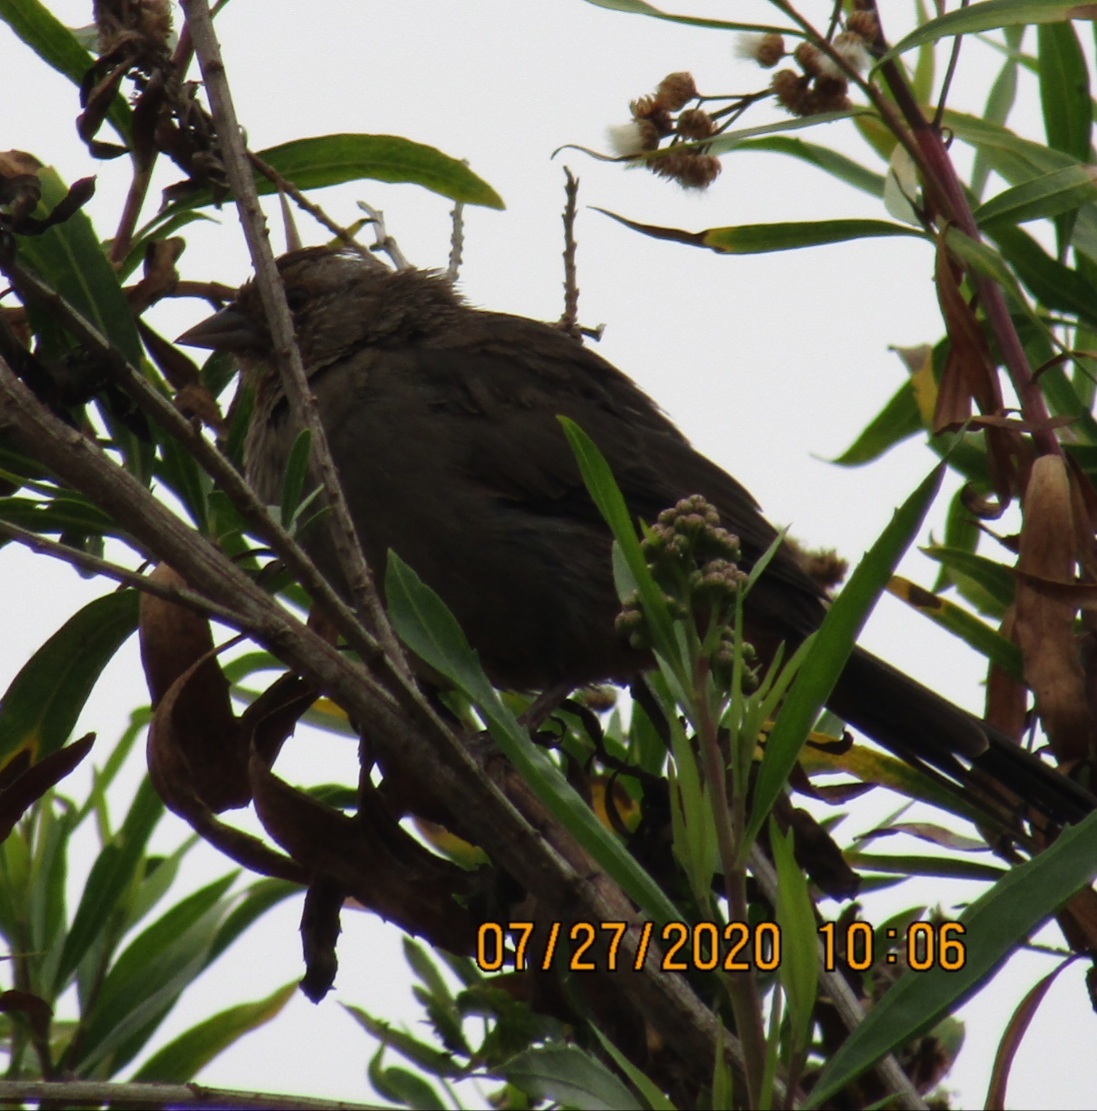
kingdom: Animalia
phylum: Chordata
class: Aves
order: Passeriformes
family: Passerellidae
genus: Melozone
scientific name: Melozone crissalis
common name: California towhee
